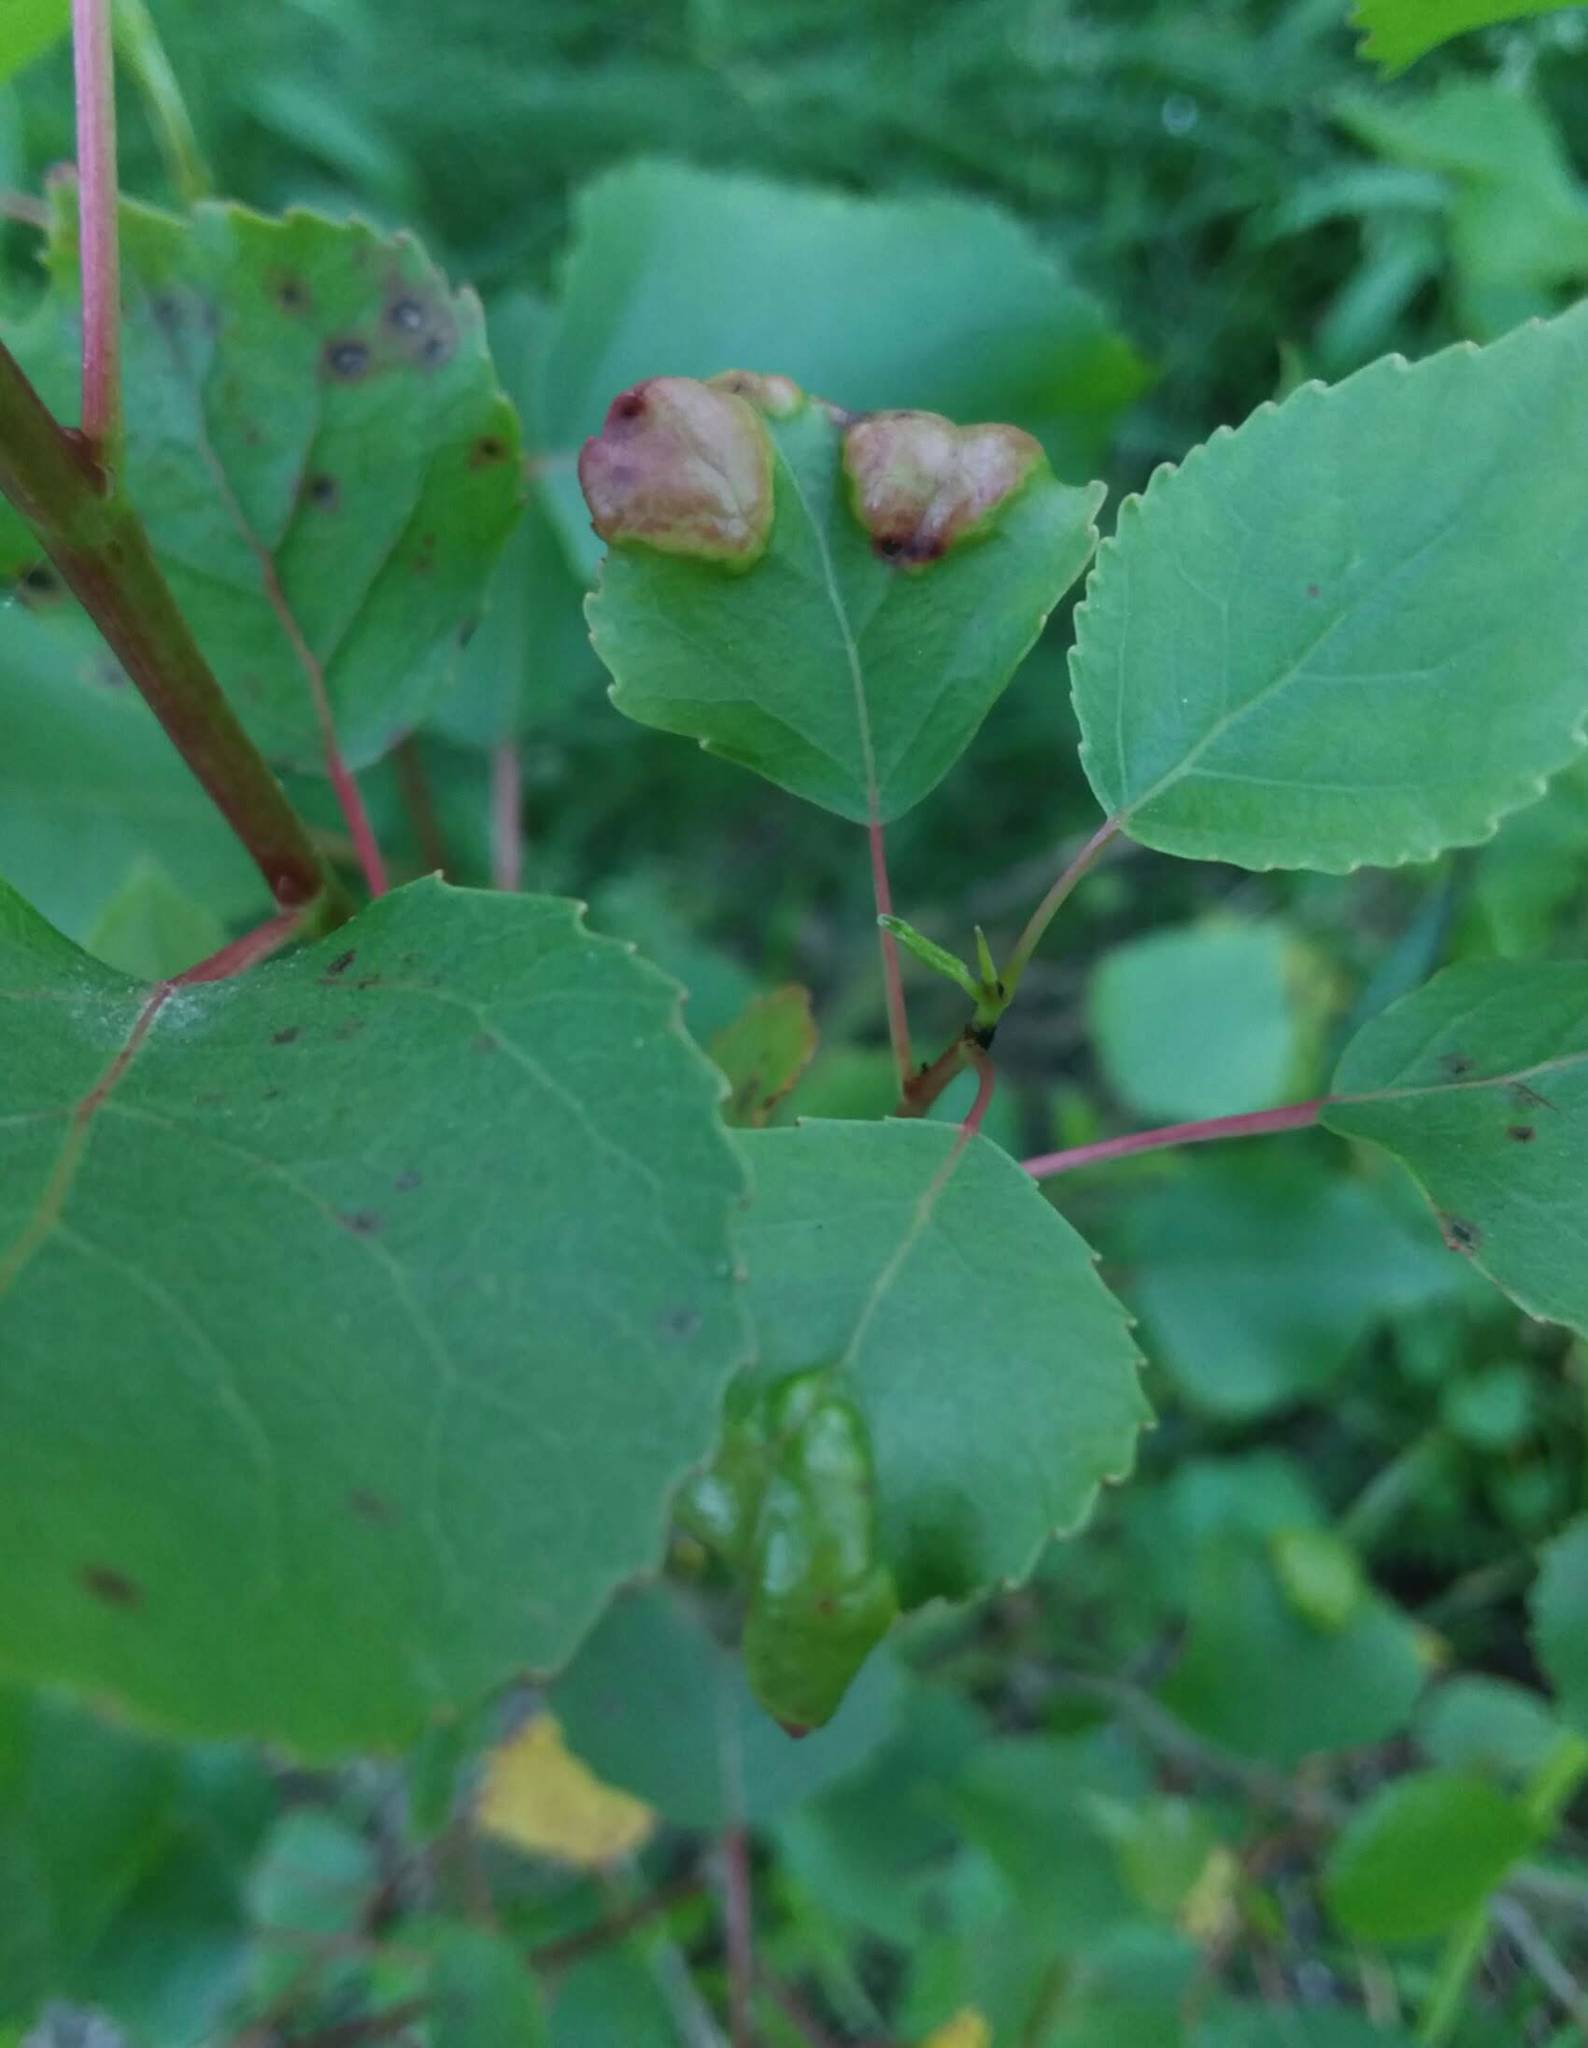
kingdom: Fungi
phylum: Ascomycota
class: Taphrinomycetes
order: Taphrinales
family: Taphrinaceae
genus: Taphrina
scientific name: Taphrina populina
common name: Poplar leaf curl
